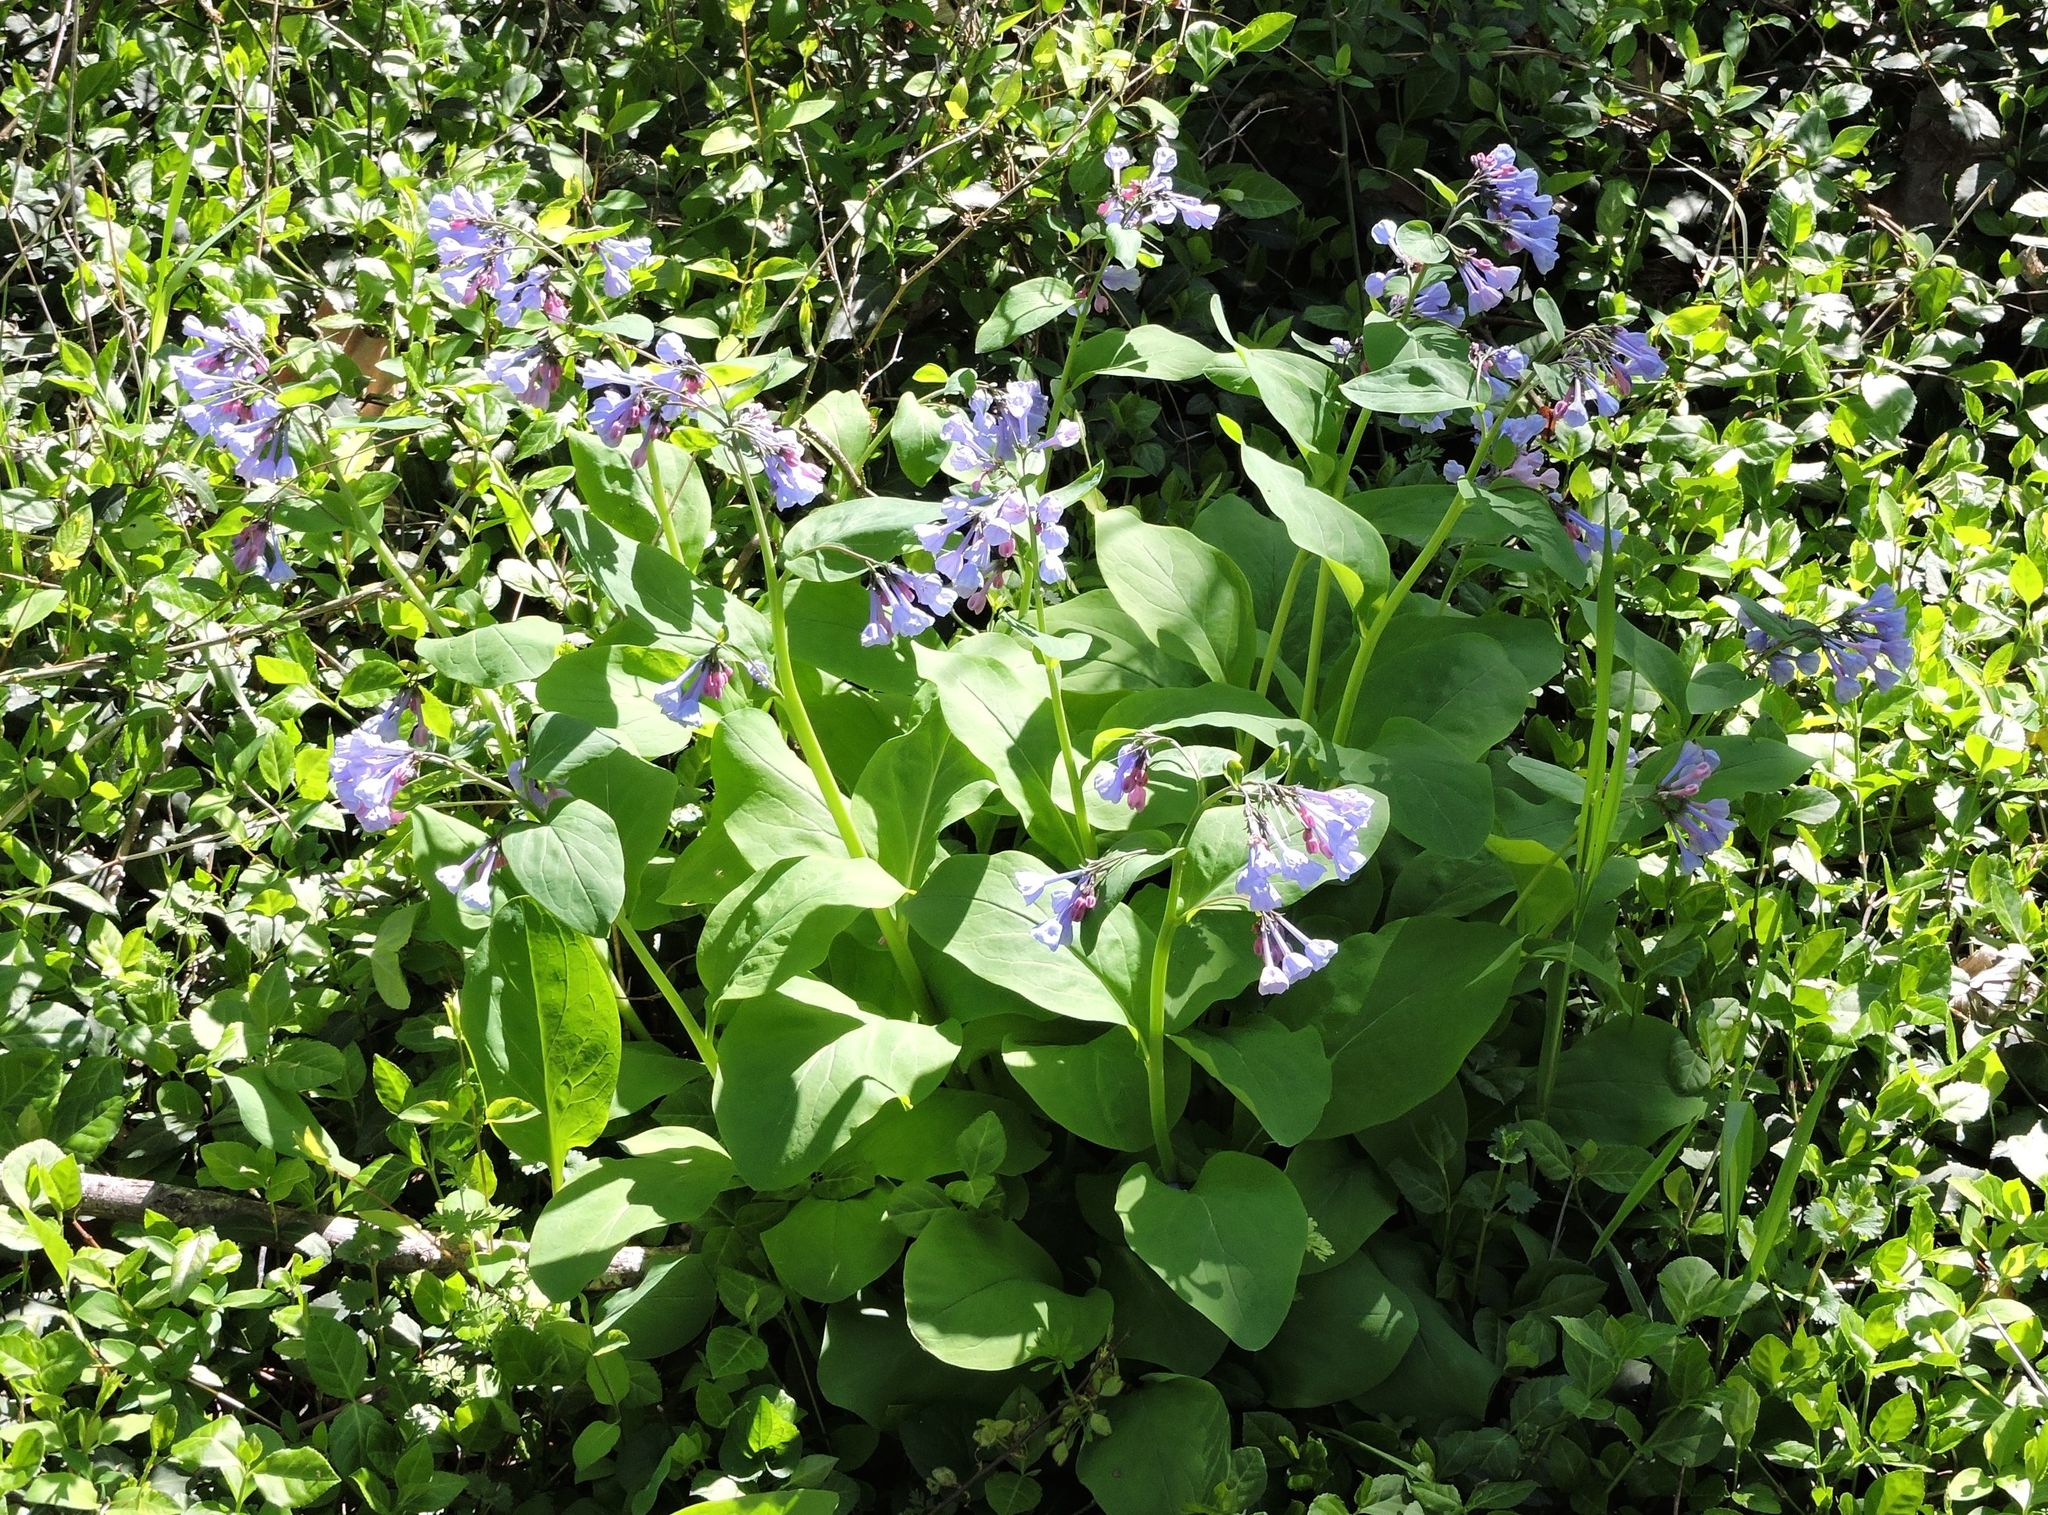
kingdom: Plantae
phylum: Tracheophyta
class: Magnoliopsida
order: Boraginales
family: Boraginaceae
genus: Mertensia
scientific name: Mertensia virginica
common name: Virginia bluebells
